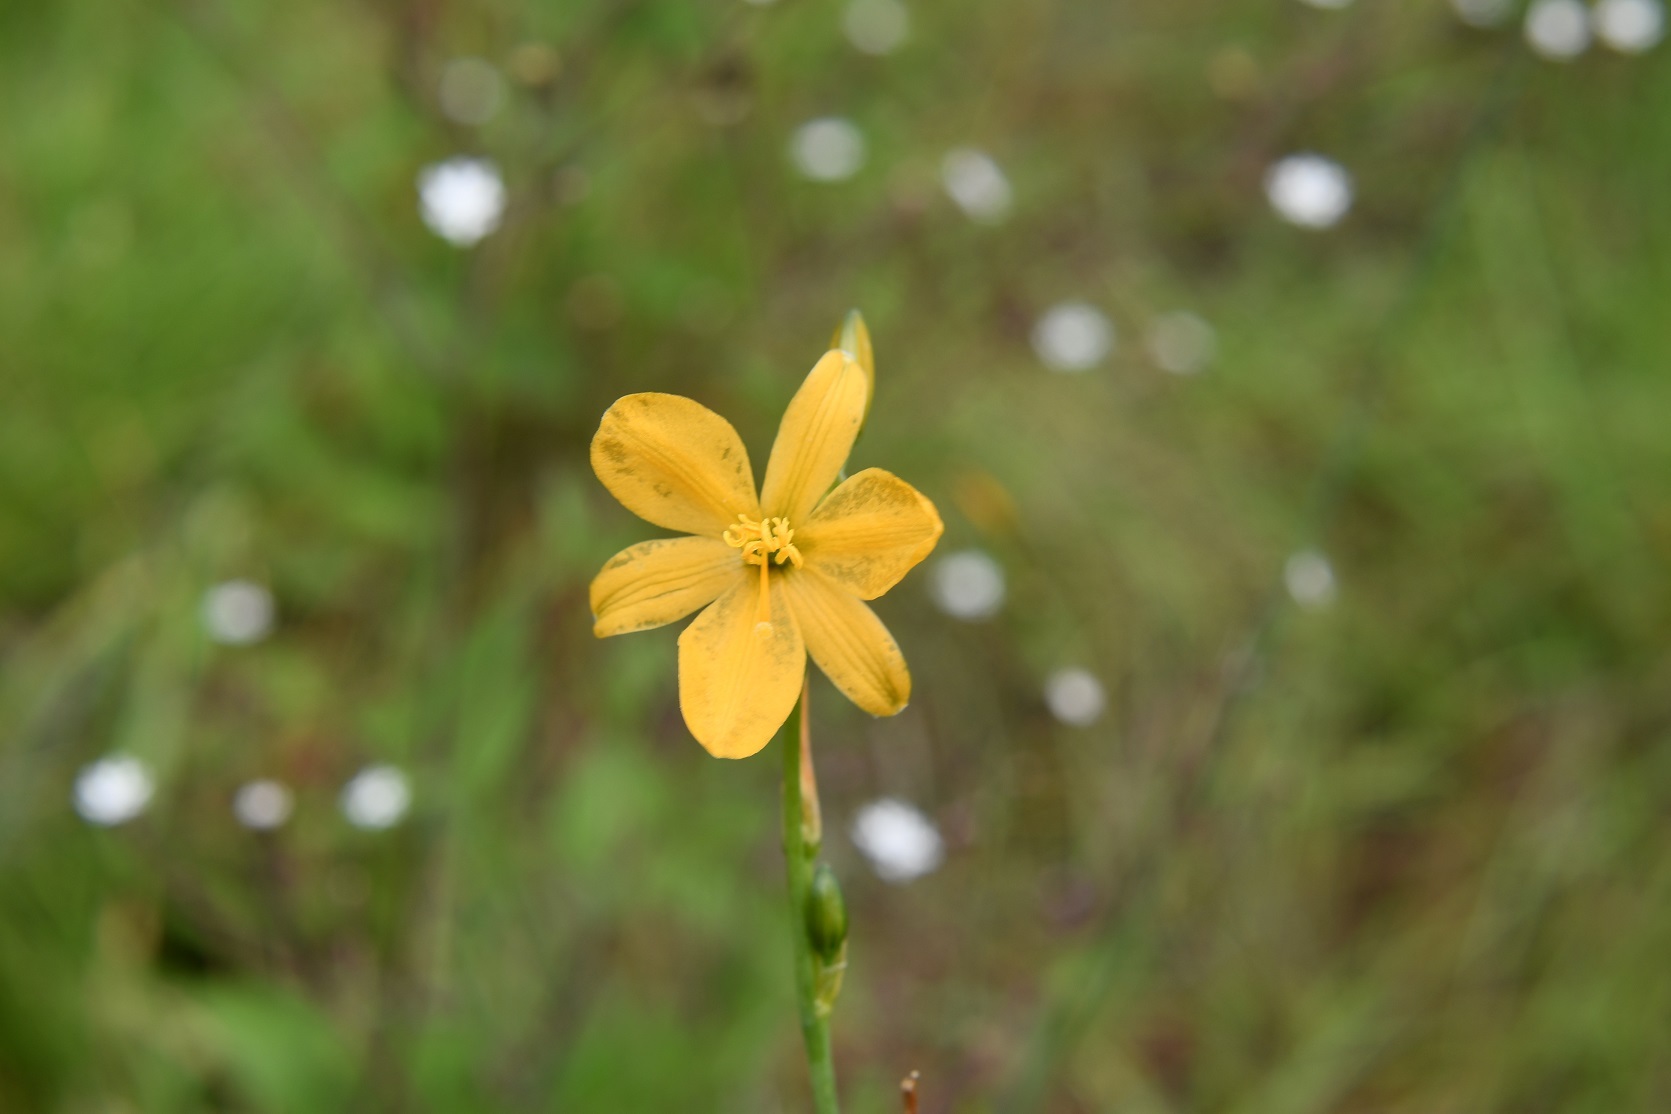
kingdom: Plantae
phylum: Tracheophyta
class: Liliopsida
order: Asparagales
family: Asparagaceae
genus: Echeandia
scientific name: Echeandia skinneri
